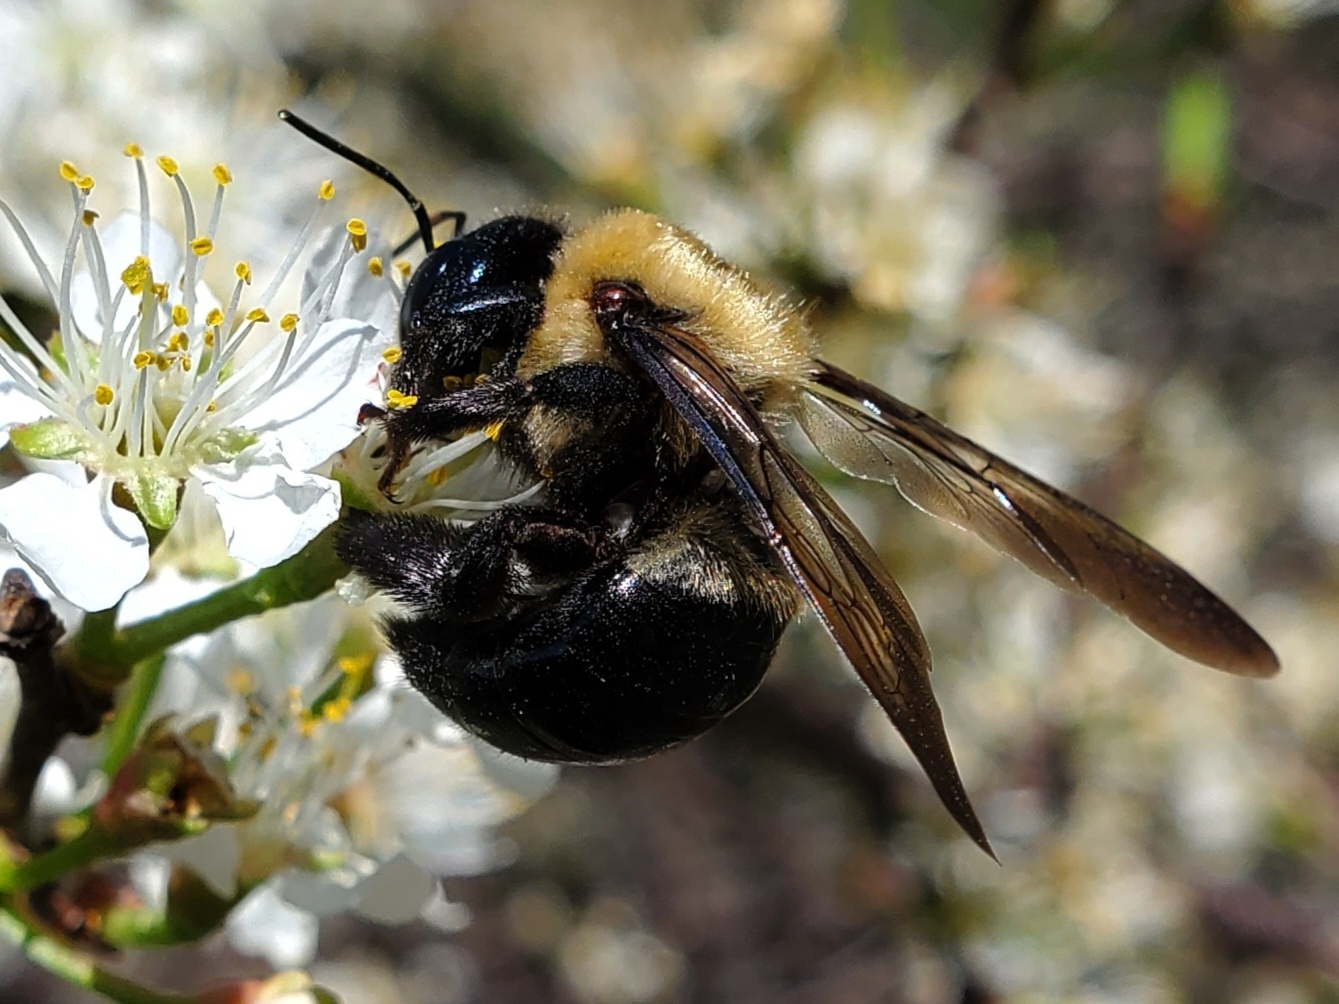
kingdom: Animalia
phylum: Arthropoda
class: Insecta
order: Hymenoptera
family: Apidae
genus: Xylocopa
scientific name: Xylocopa virginica
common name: Carpenter bee
